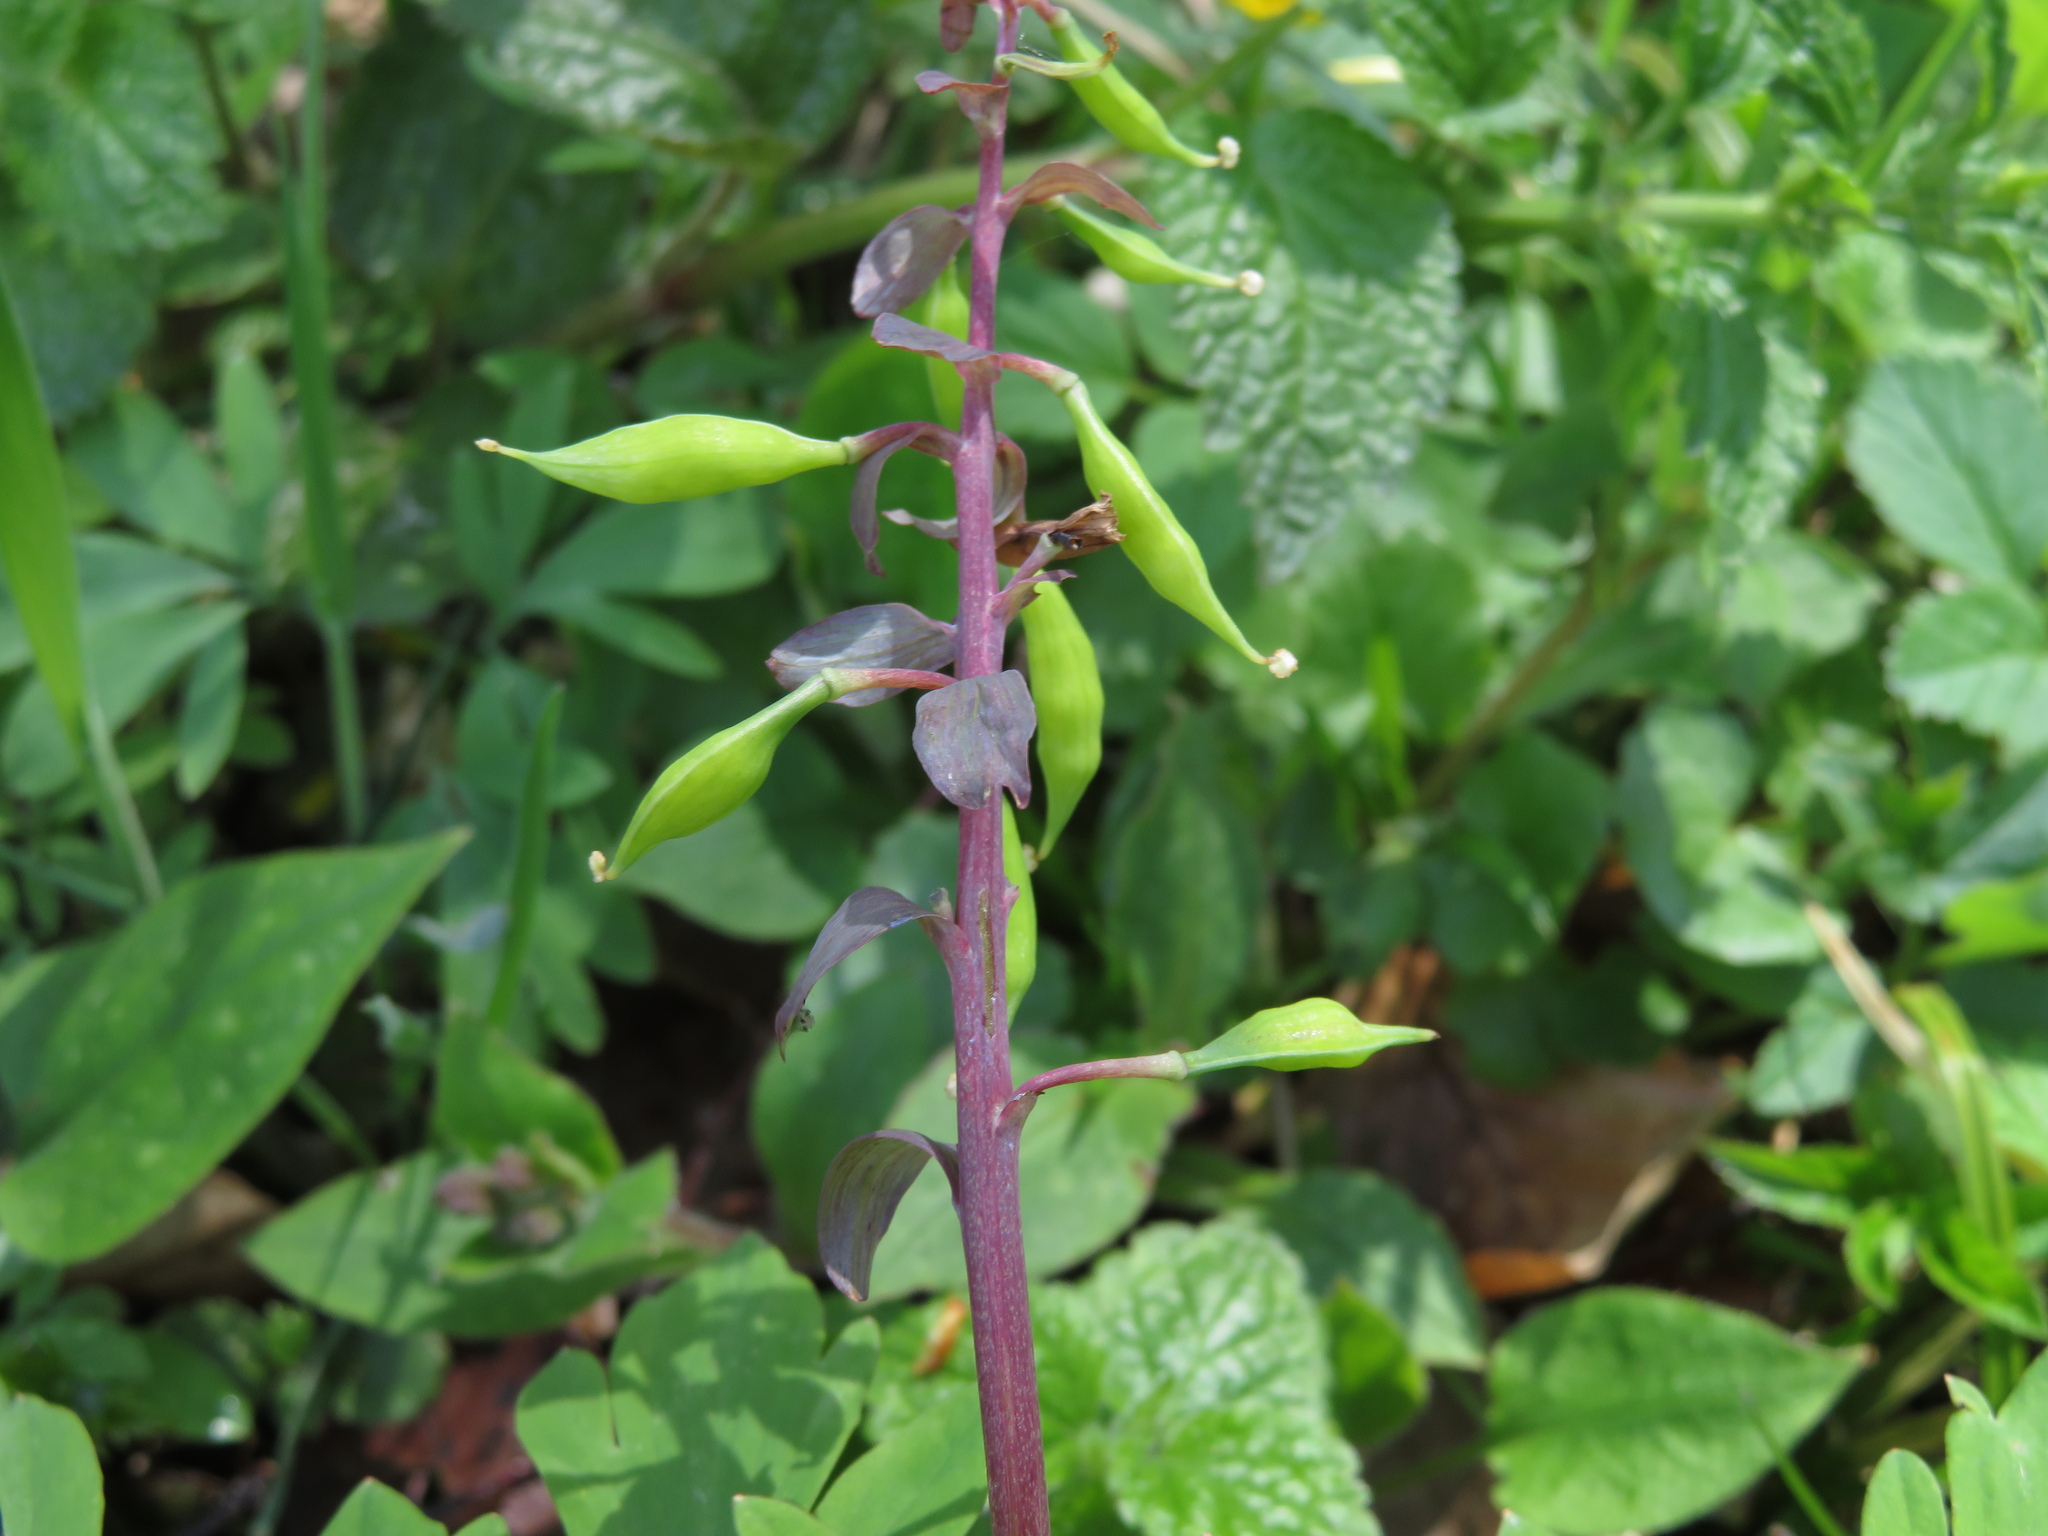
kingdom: Plantae
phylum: Tracheophyta
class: Magnoliopsida
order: Ranunculales
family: Papaveraceae
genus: Corydalis
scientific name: Corydalis cava
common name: Hollowroot
